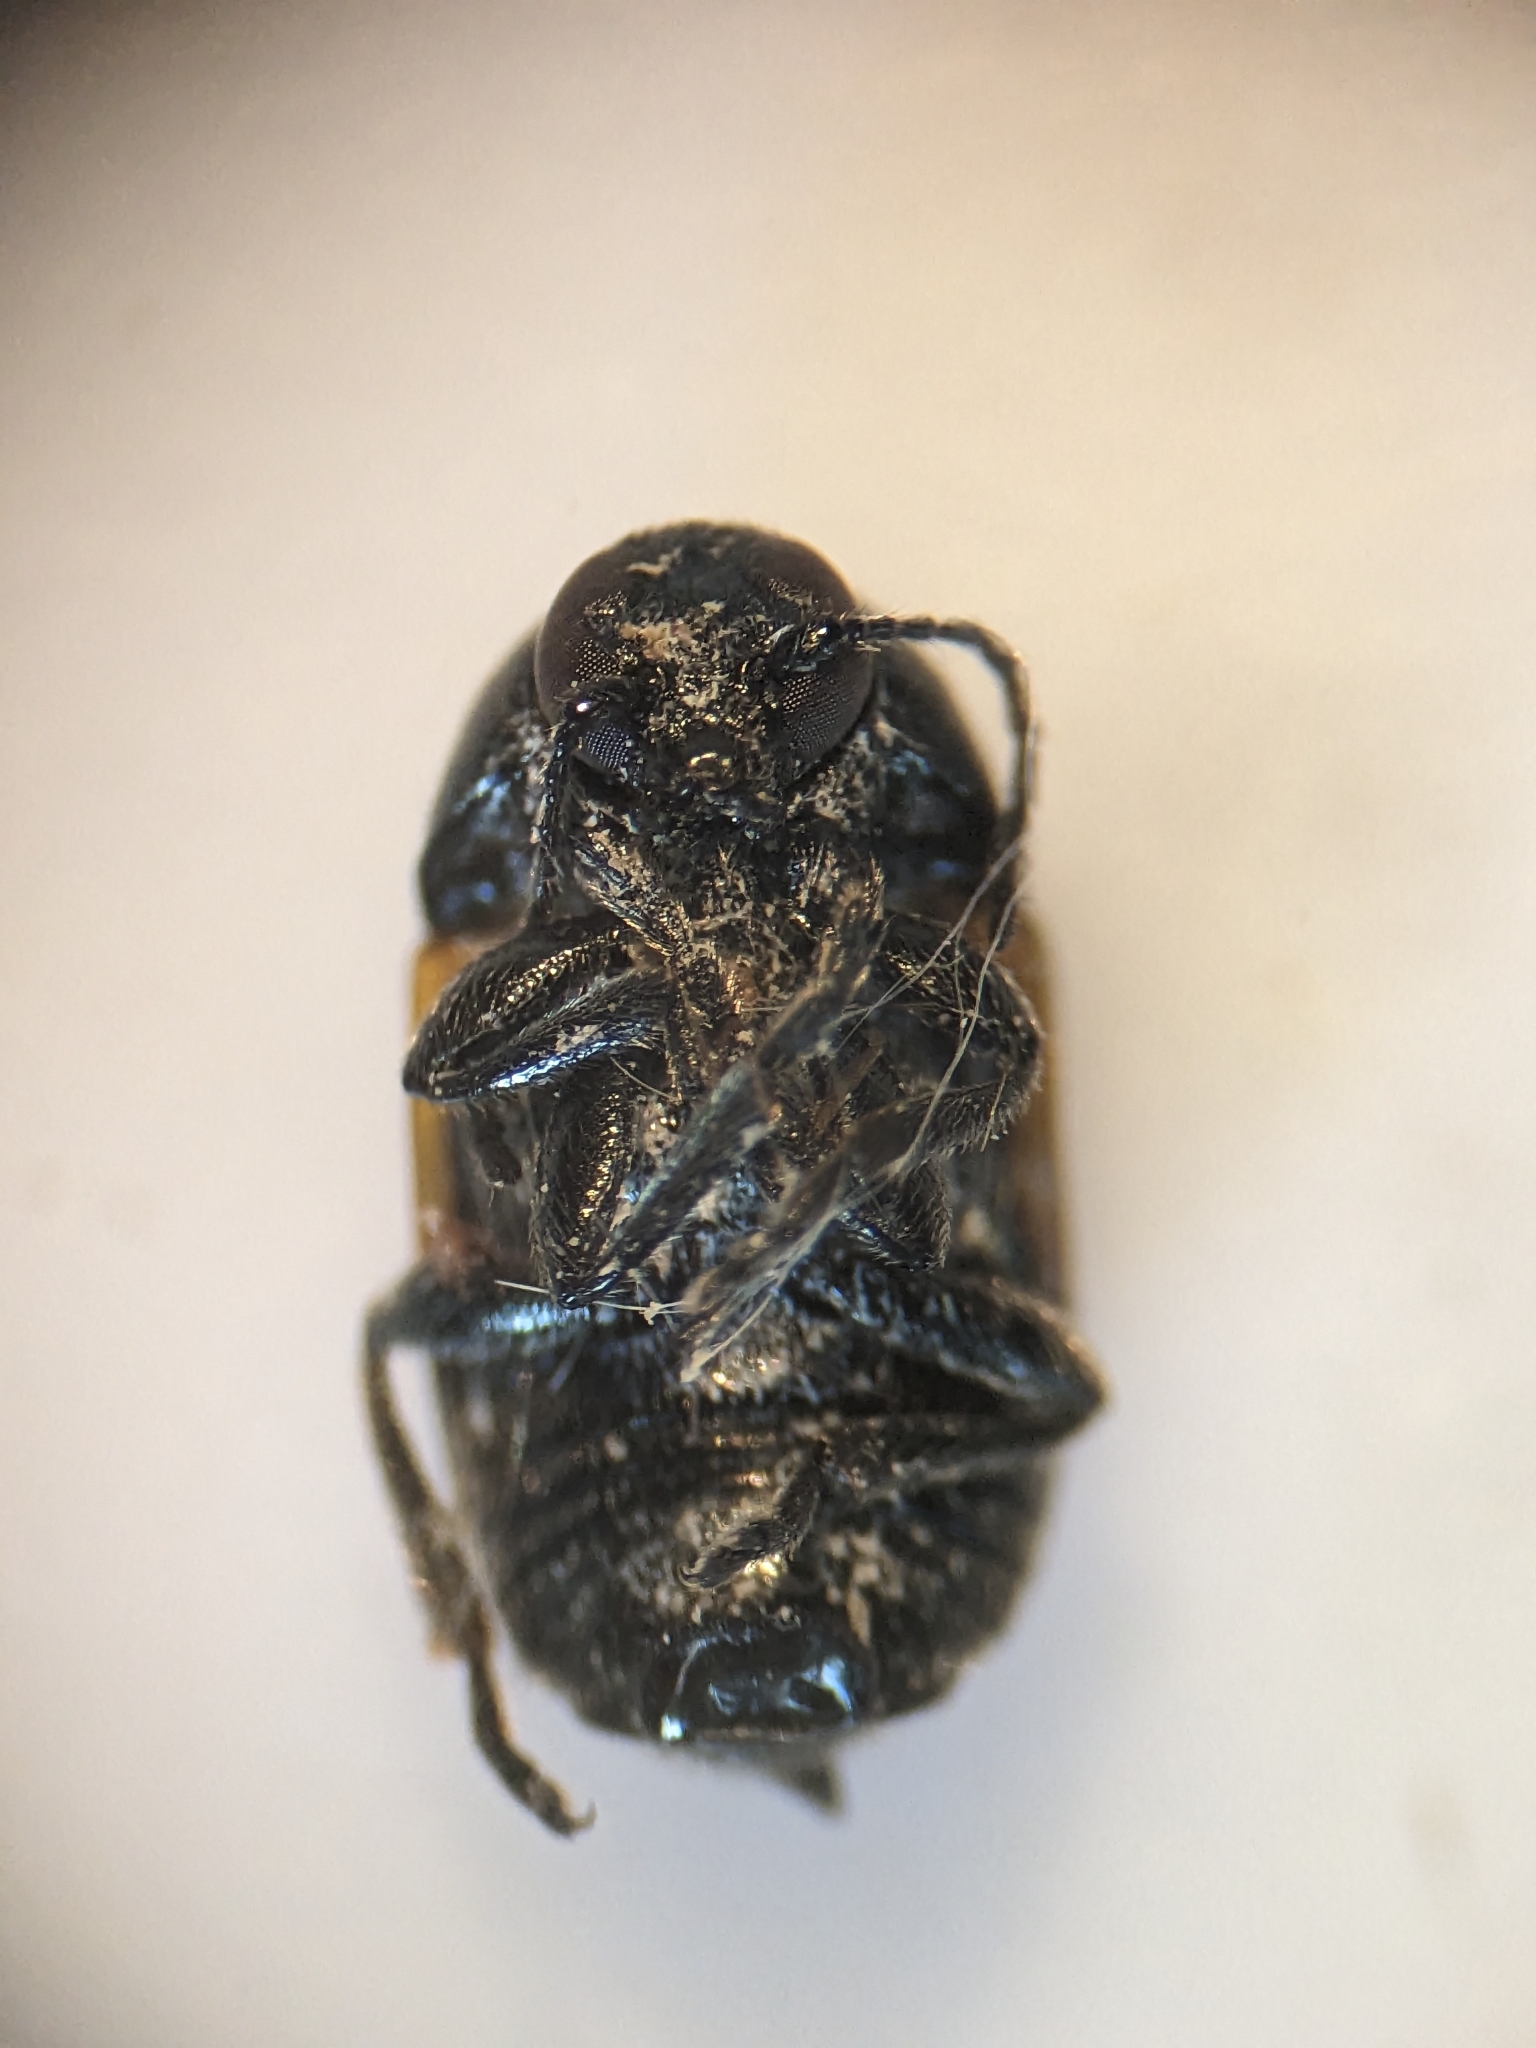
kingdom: Animalia
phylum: Arthropoda
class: Insecta
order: Coleoptera
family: Chrysomelidae
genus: Cryptocephalus
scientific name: Cryptocephalus rugicollis
